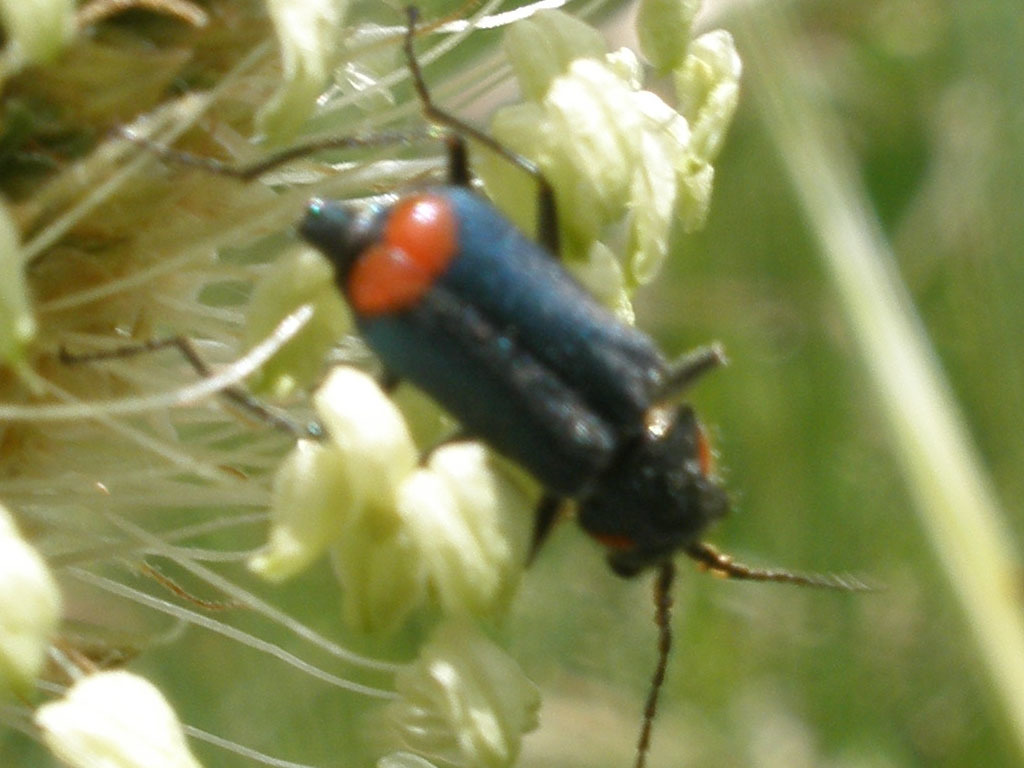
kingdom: Animalia
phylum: Arthropoda
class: Insecta
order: Coleoptera
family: Melyridae
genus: Malachius
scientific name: Malachius lusitanicus
